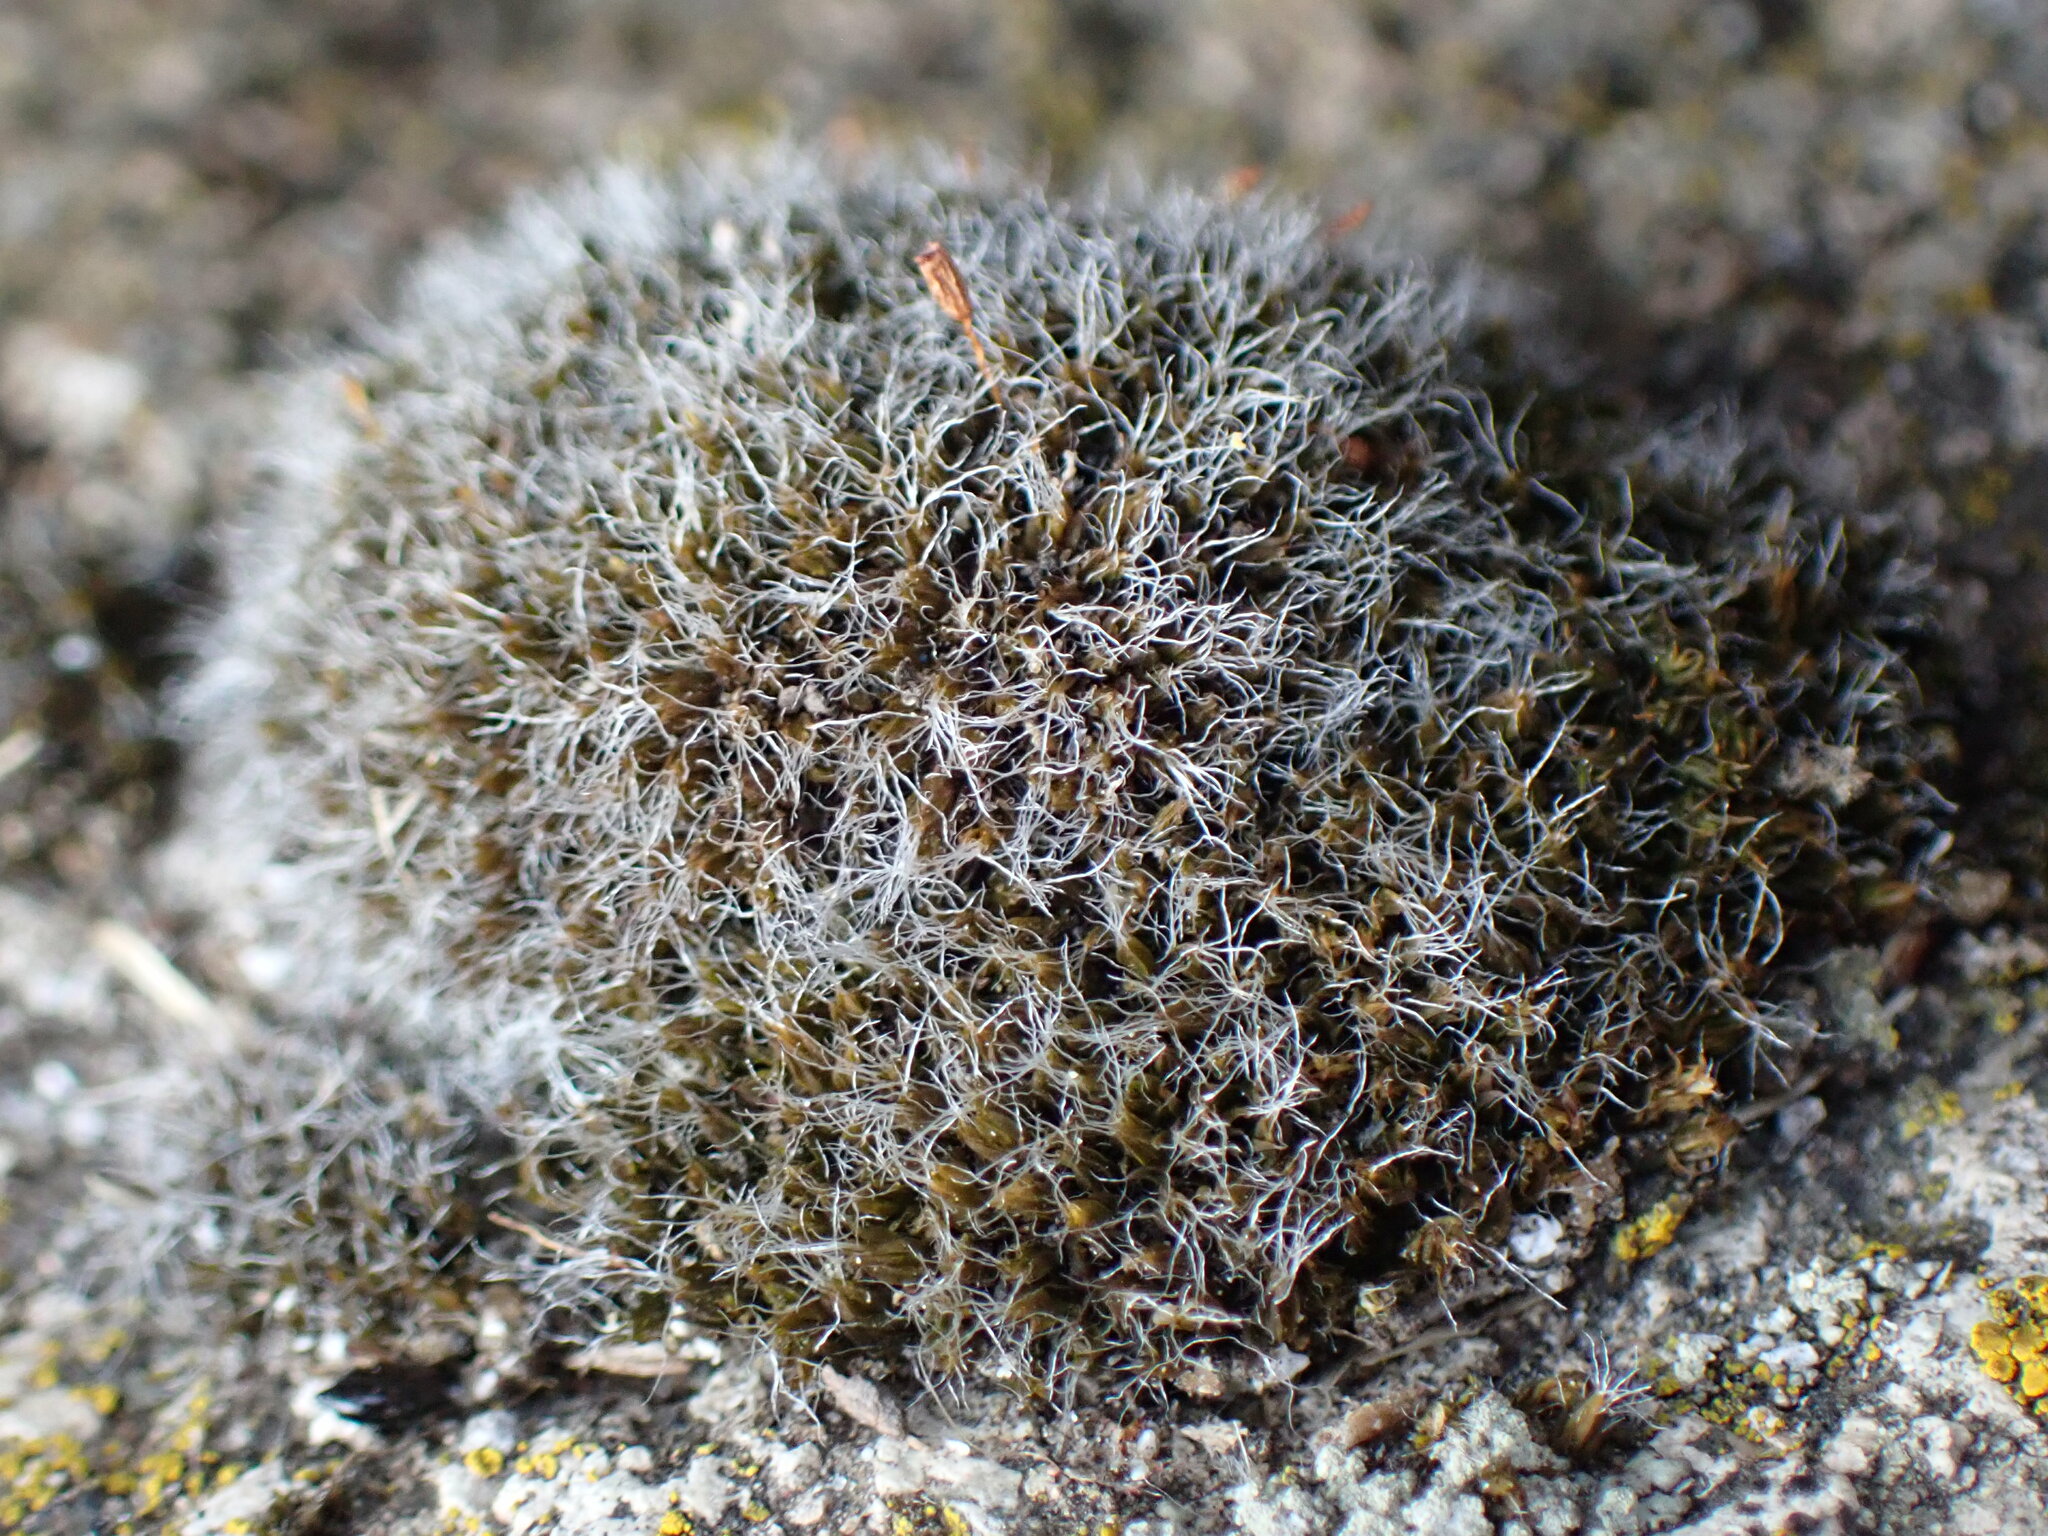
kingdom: Plantae
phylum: Bryophyta
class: Bryopsida
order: Grimmiales
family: Grimmiaceae
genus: Grimmia
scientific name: Grimmia pulvinata
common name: Grey-cushioned grimmia
